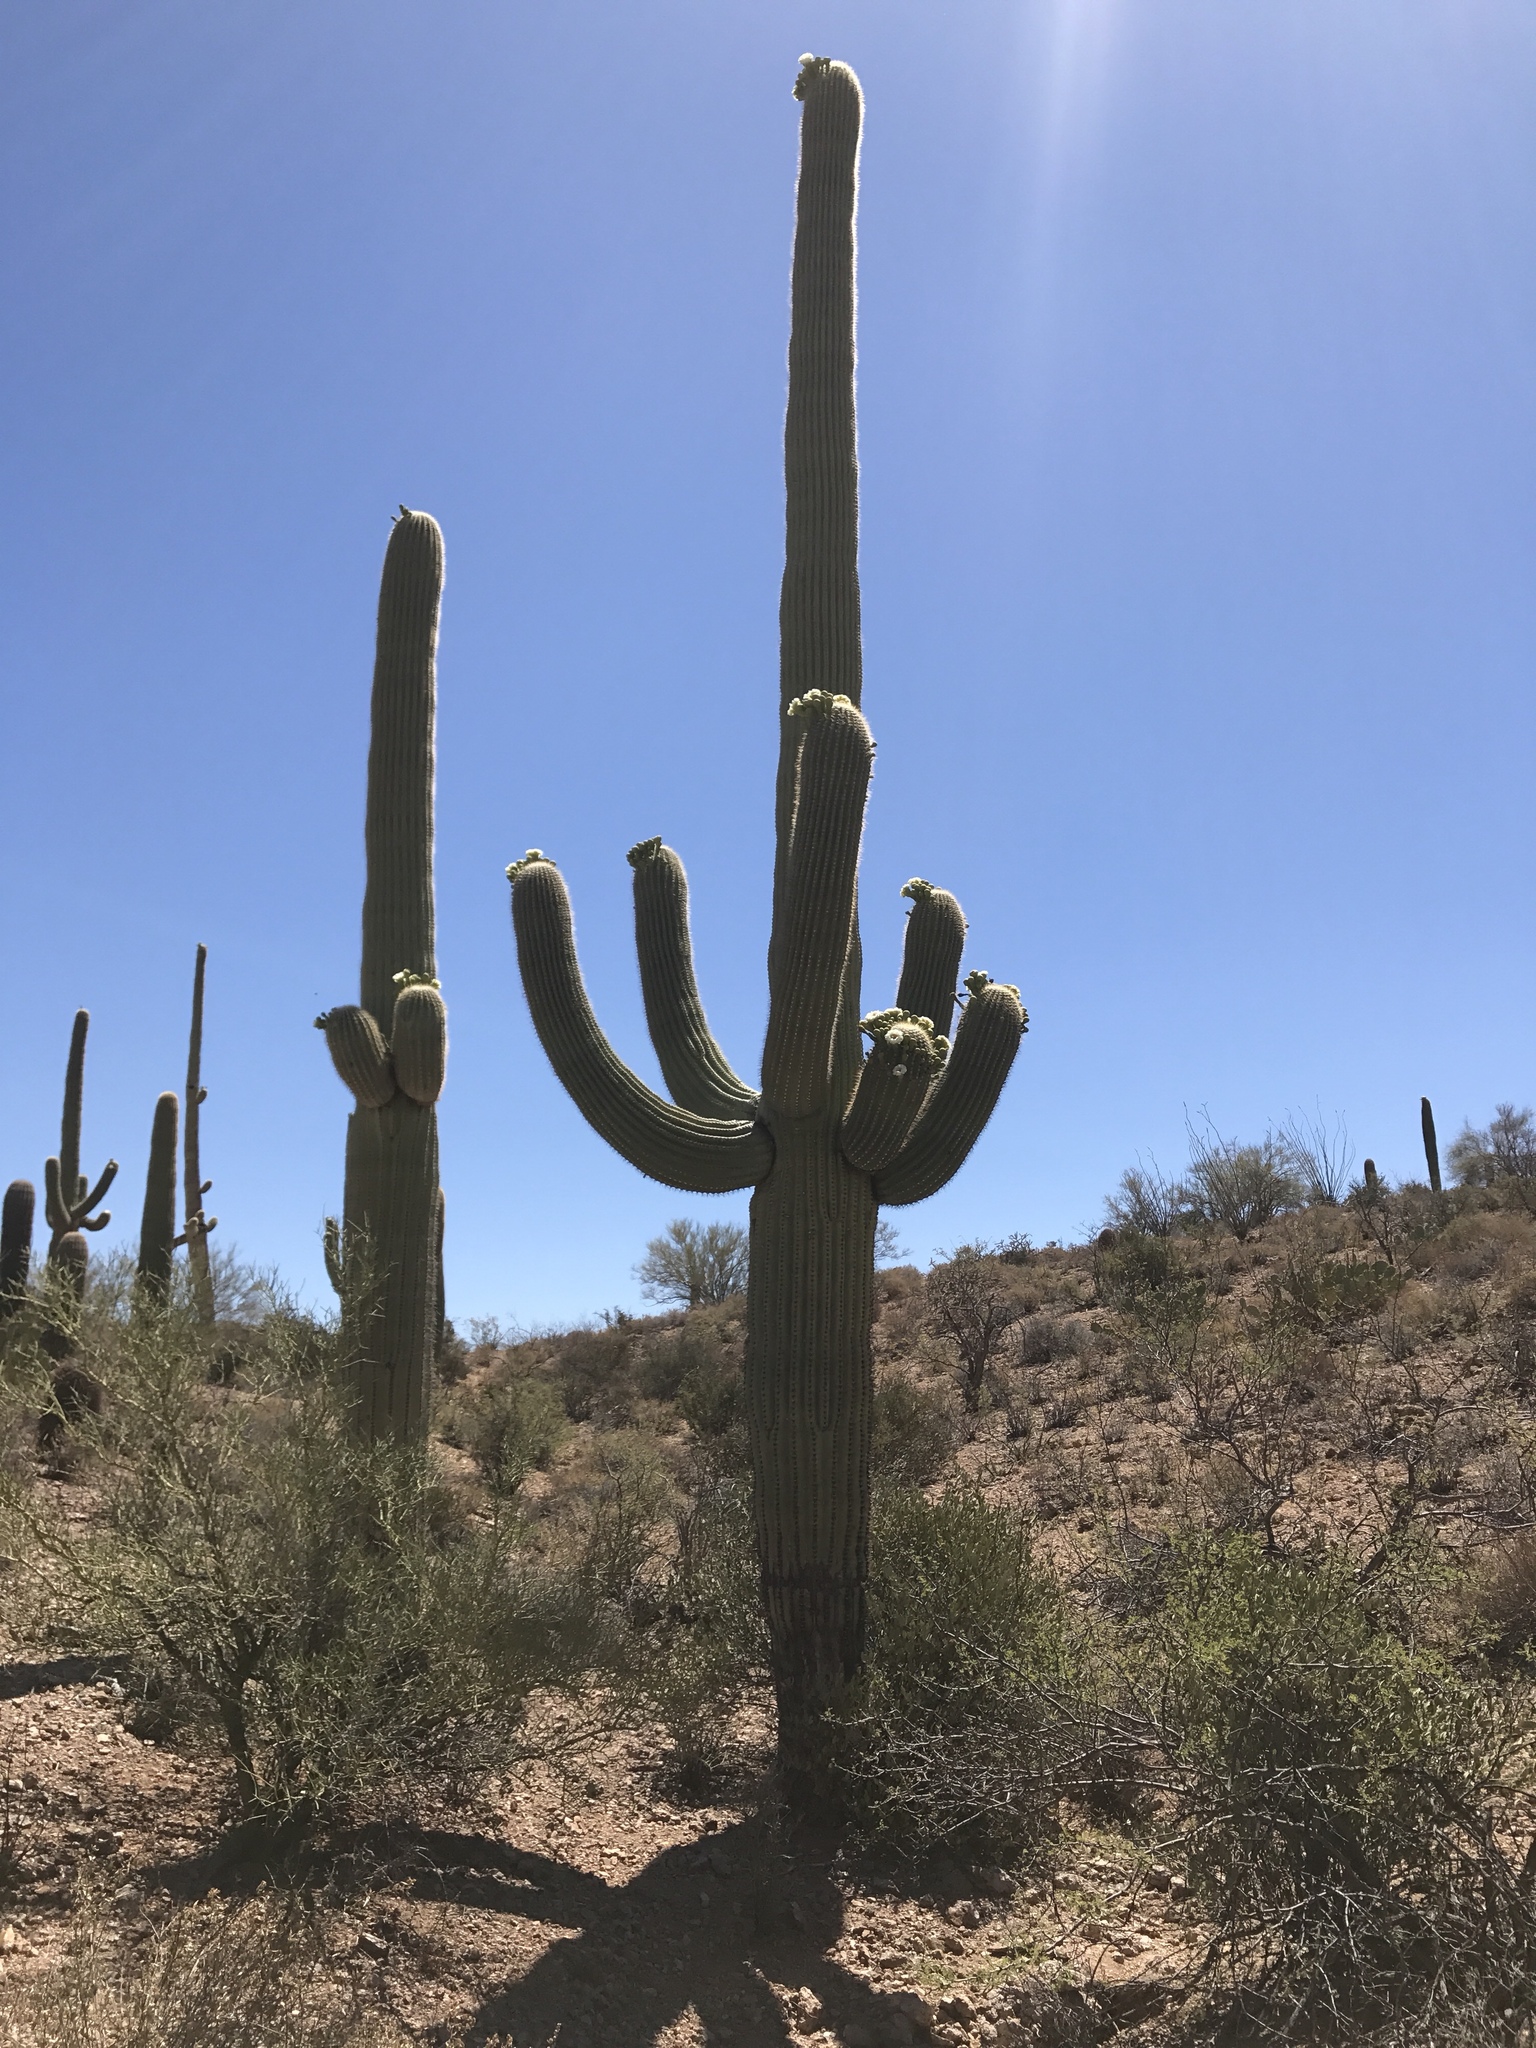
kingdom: Plantae
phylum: Tracheophyta
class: Magnoliopsida
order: Caryophyllales
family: Cactaceae
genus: Carnegiea
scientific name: Carnegiea gigantea
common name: Saguaro
